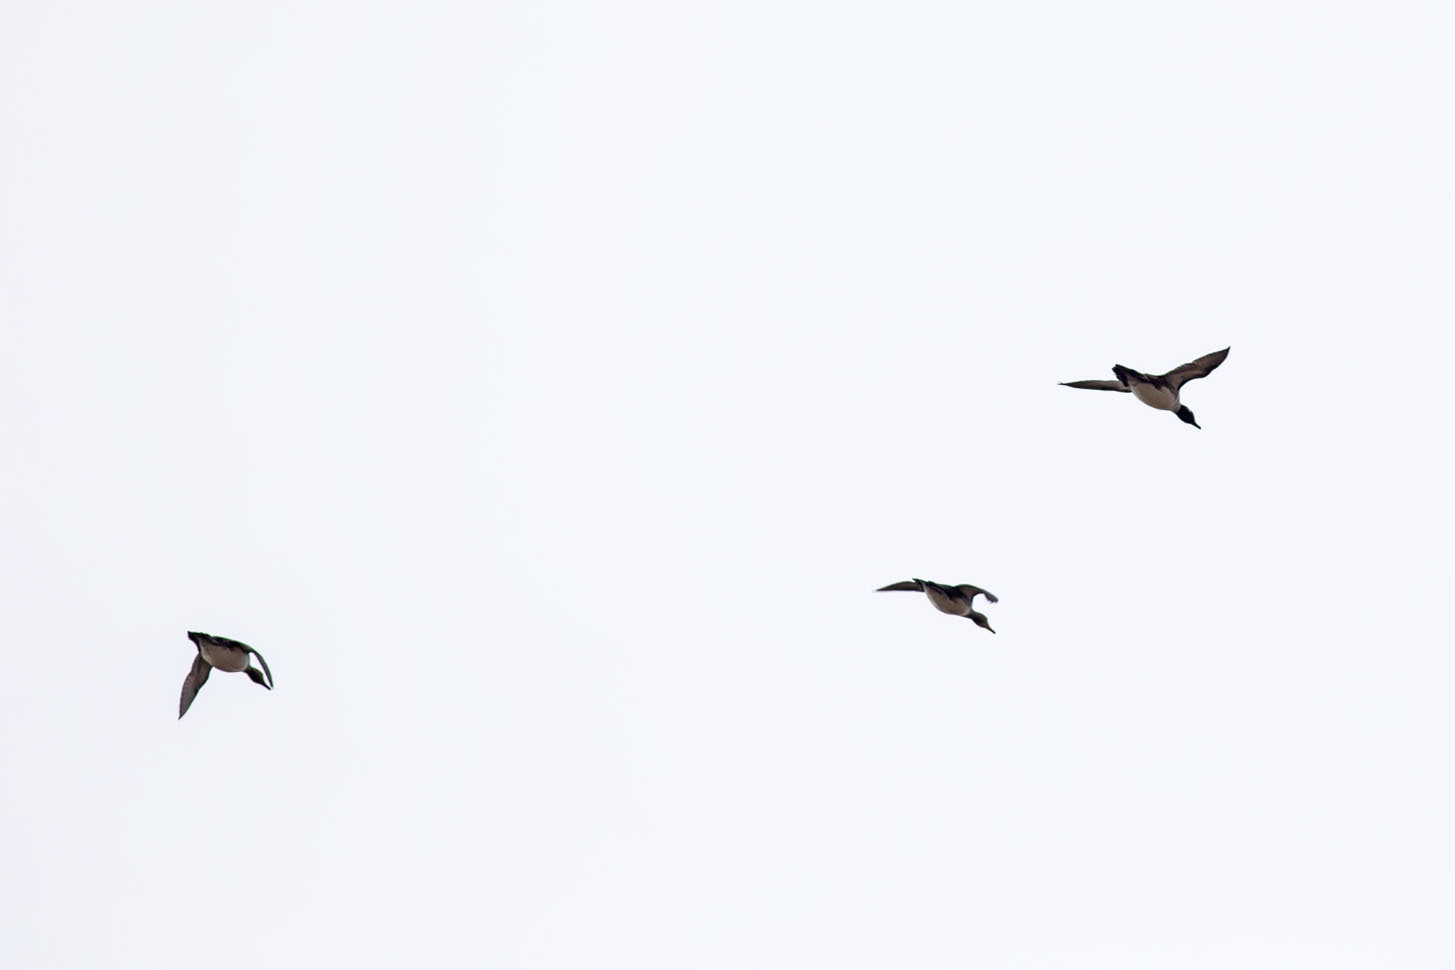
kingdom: Animalia
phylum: Chordata
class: Aves
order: Anseriformes
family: Anatidae
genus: Lophodytes
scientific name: Lophodytes cucullatus
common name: Hooded merganser
